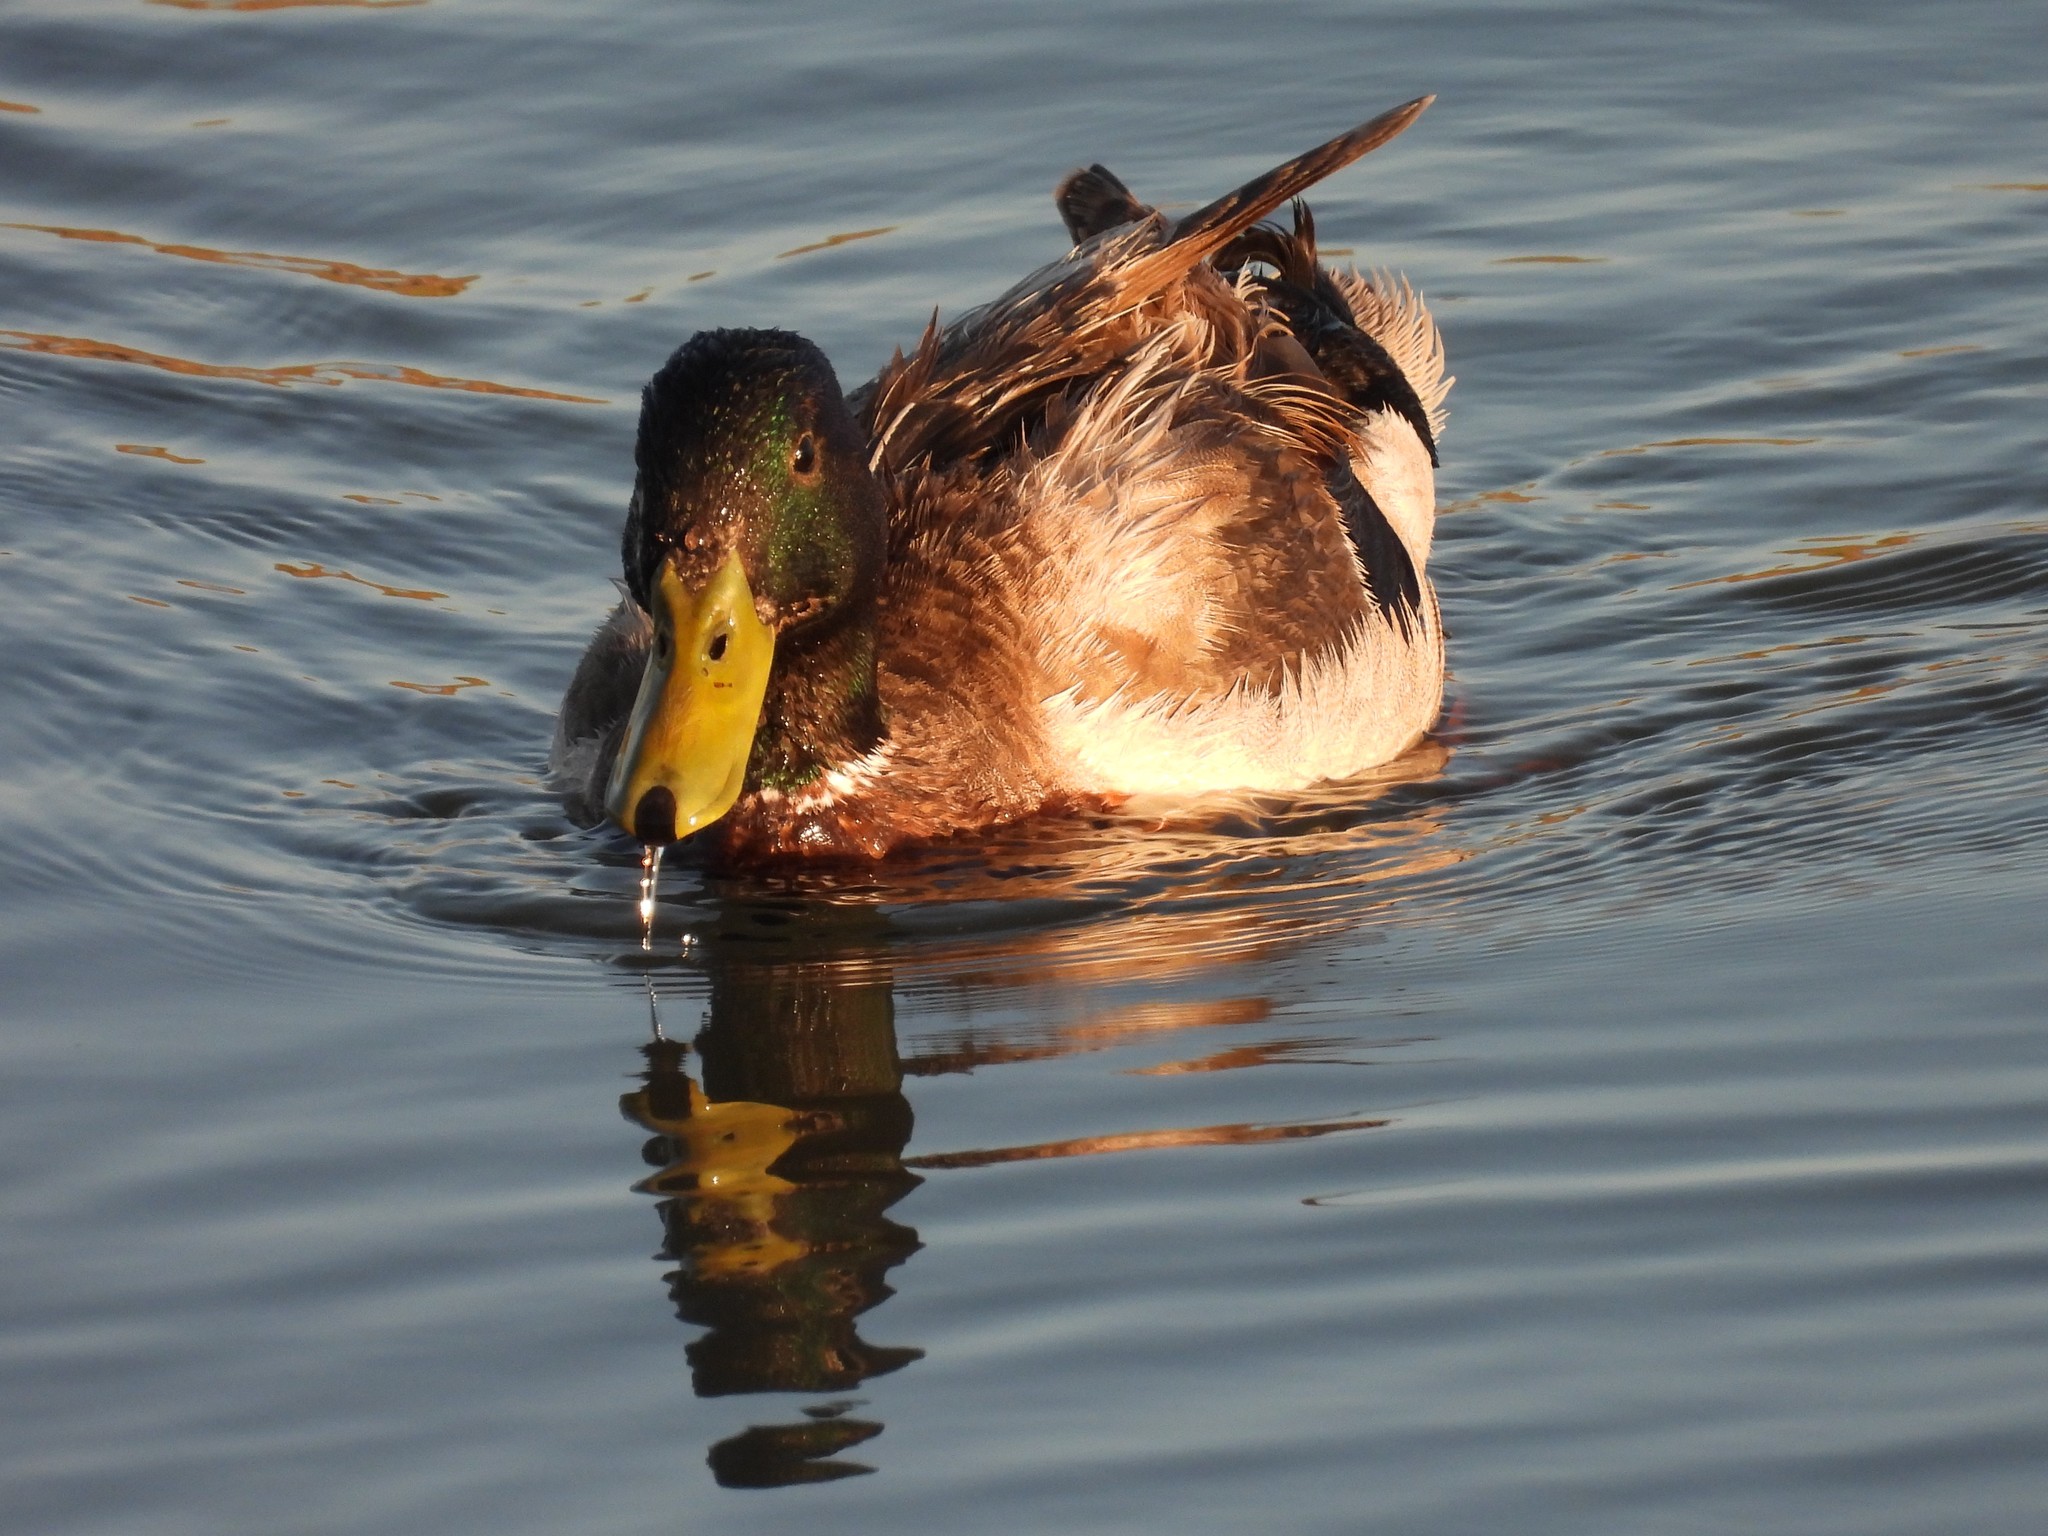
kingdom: Animalia
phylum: Chordata
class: Aves
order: Anseriformes
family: Anatidae
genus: Anas
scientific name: Anas platyrhynchos
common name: Mallard
